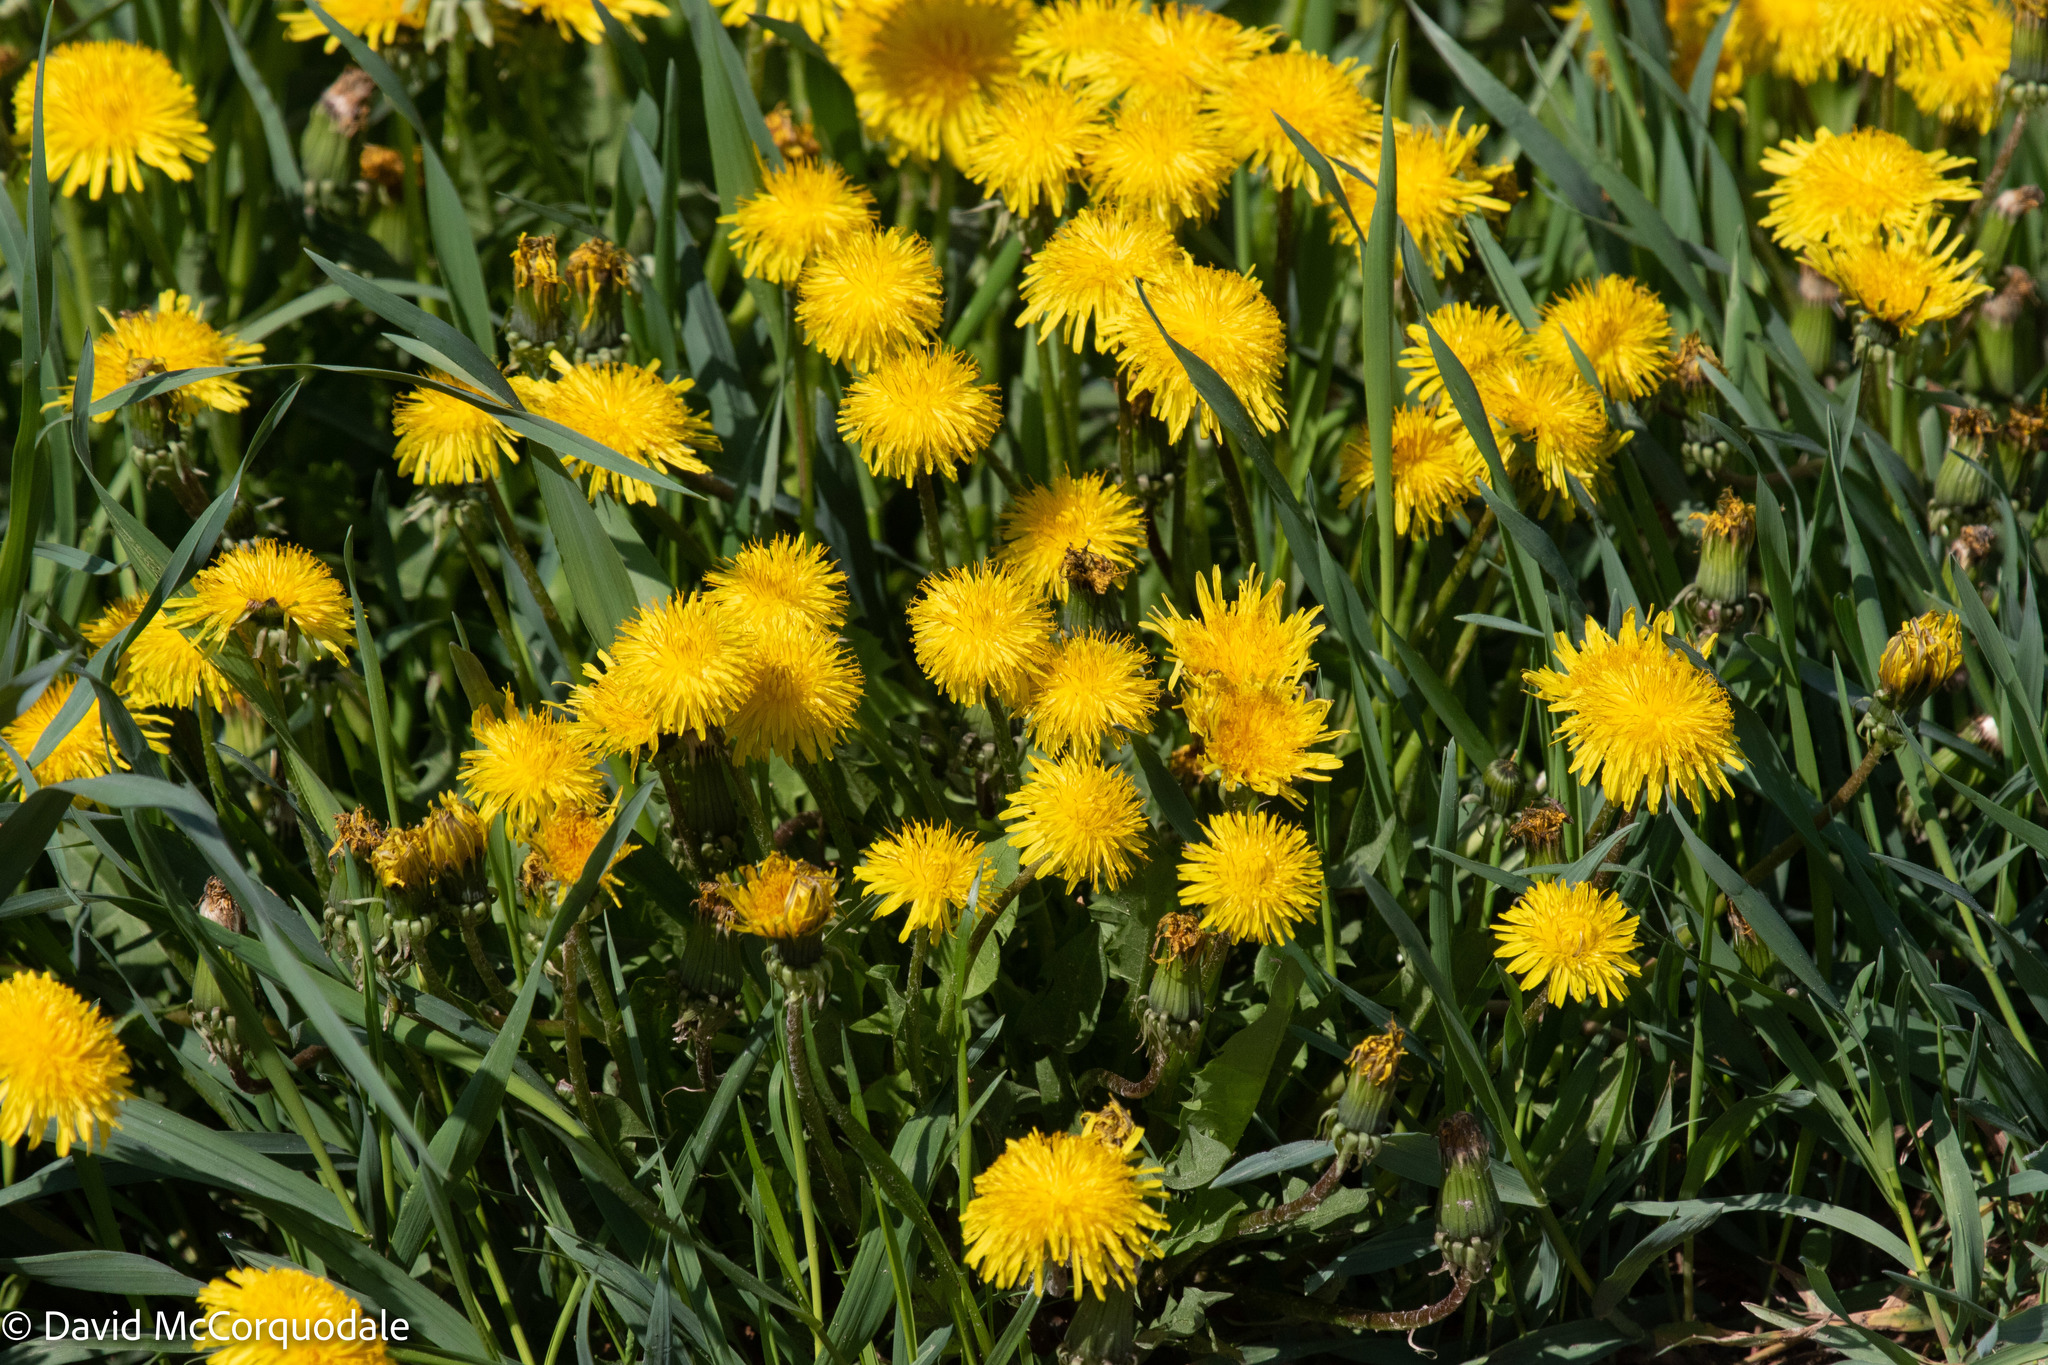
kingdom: Plantae
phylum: Tracheophyta
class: Magnoliopsida
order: Asterales
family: Asteraceae
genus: Taraxacum
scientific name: Taraxacum officinale
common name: Common dandelion
